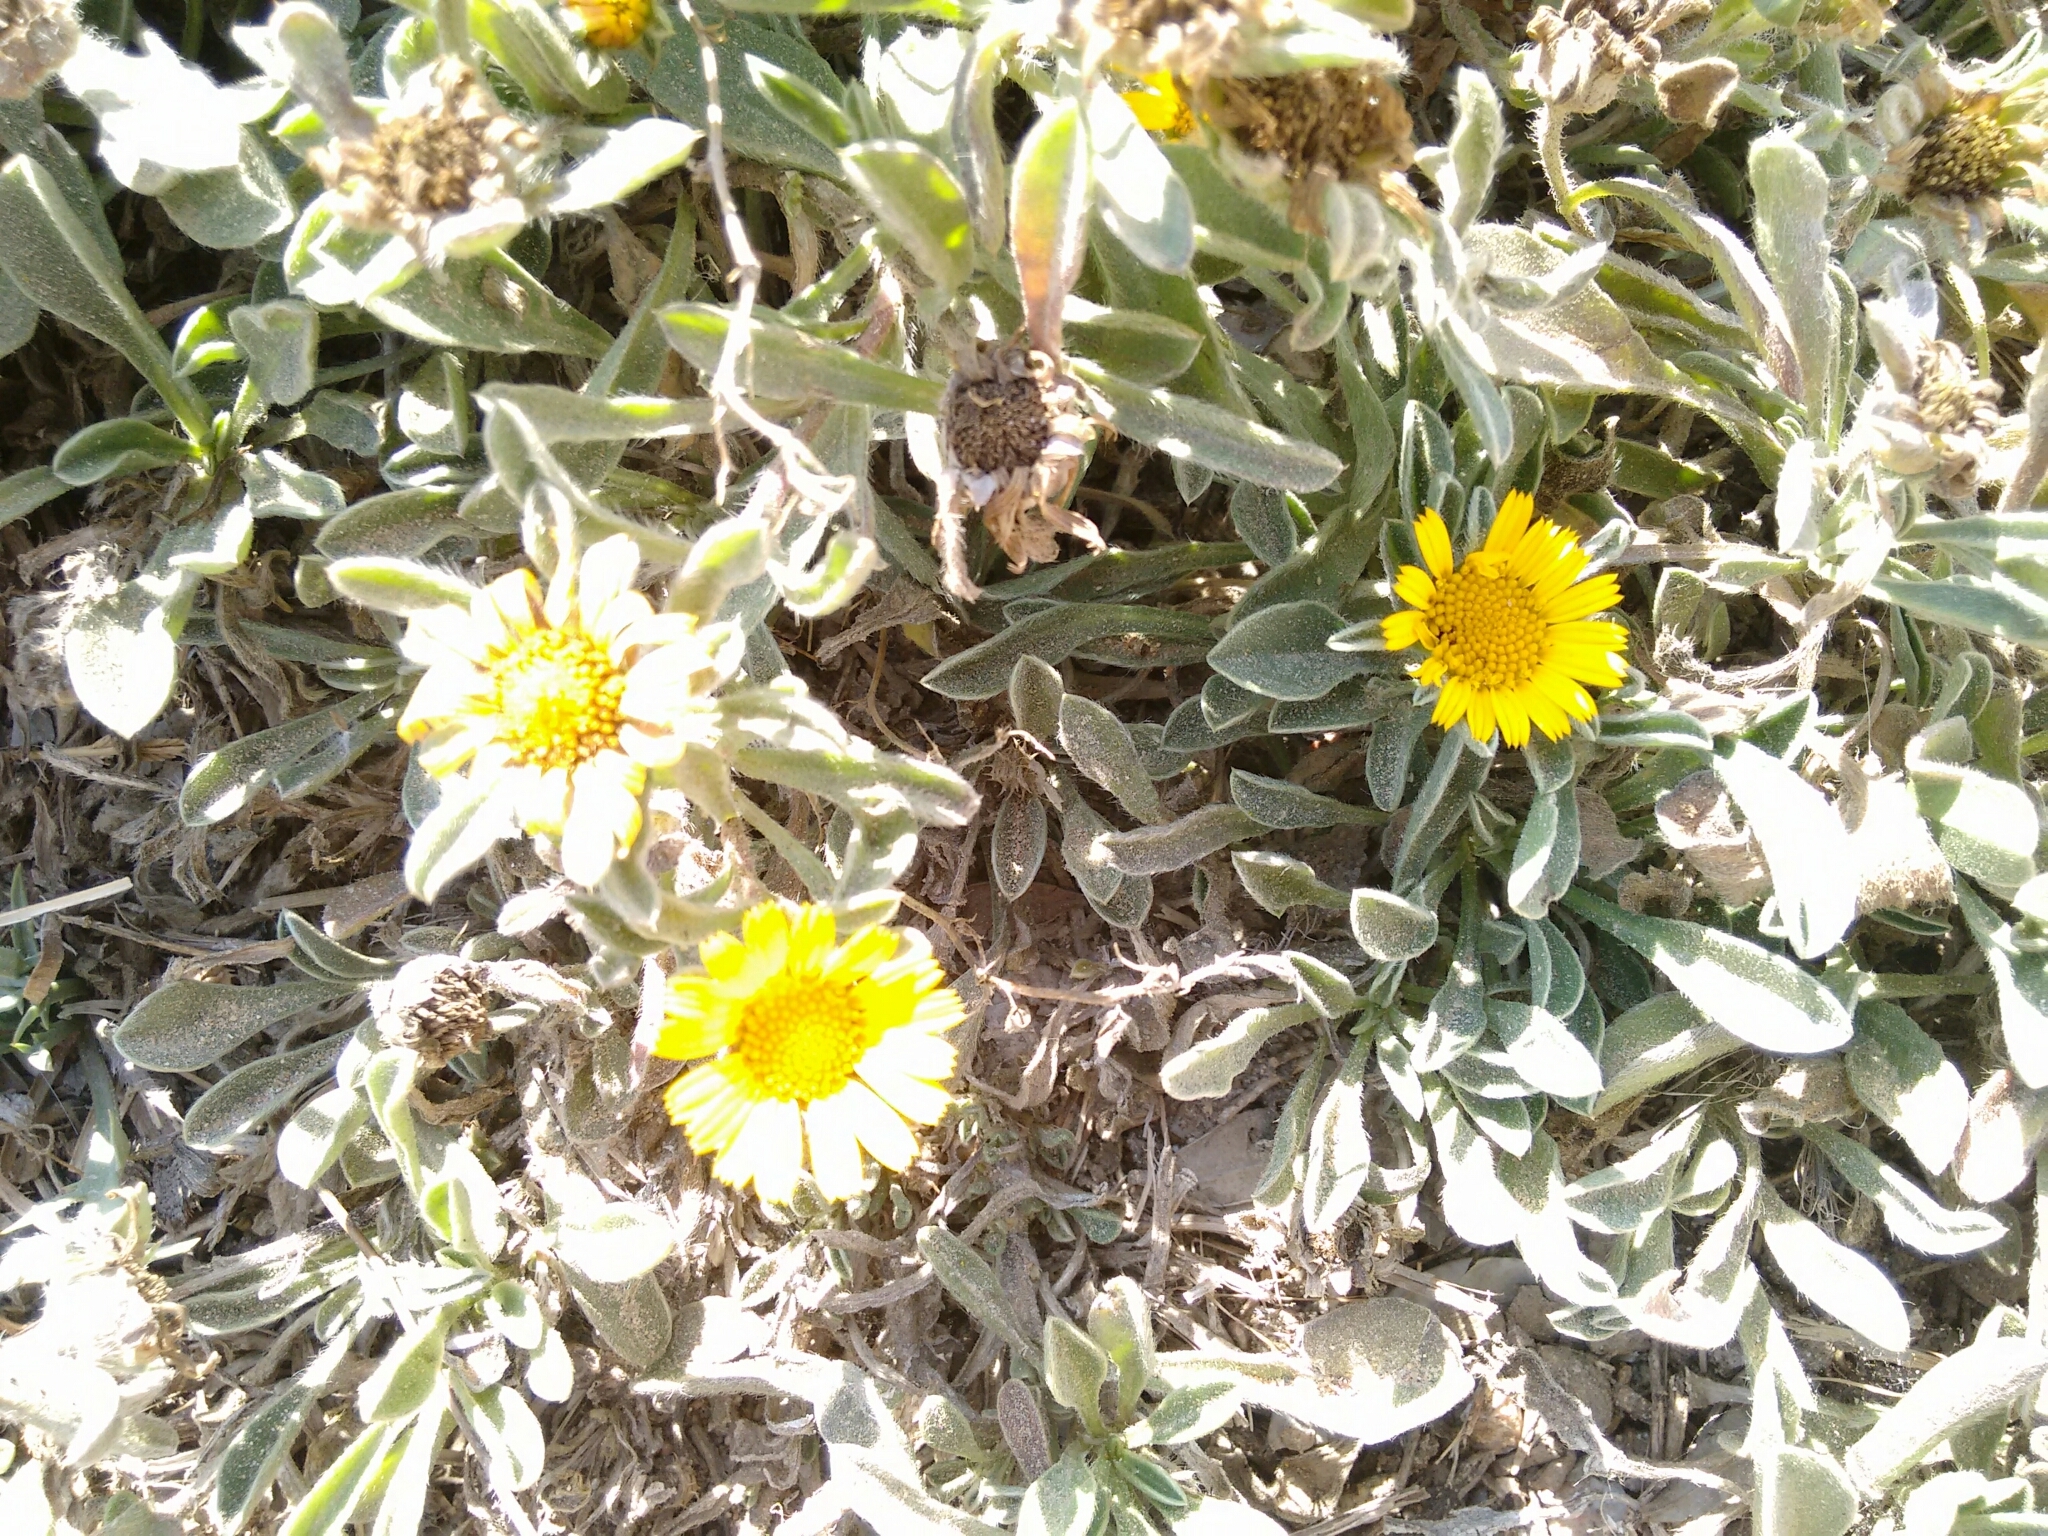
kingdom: Plantae
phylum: Tracheophyta
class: Magnoliopsida
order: Asterales
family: Asteraceae
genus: Pallenis
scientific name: Pallenis maritima
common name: Golden coin daisy
